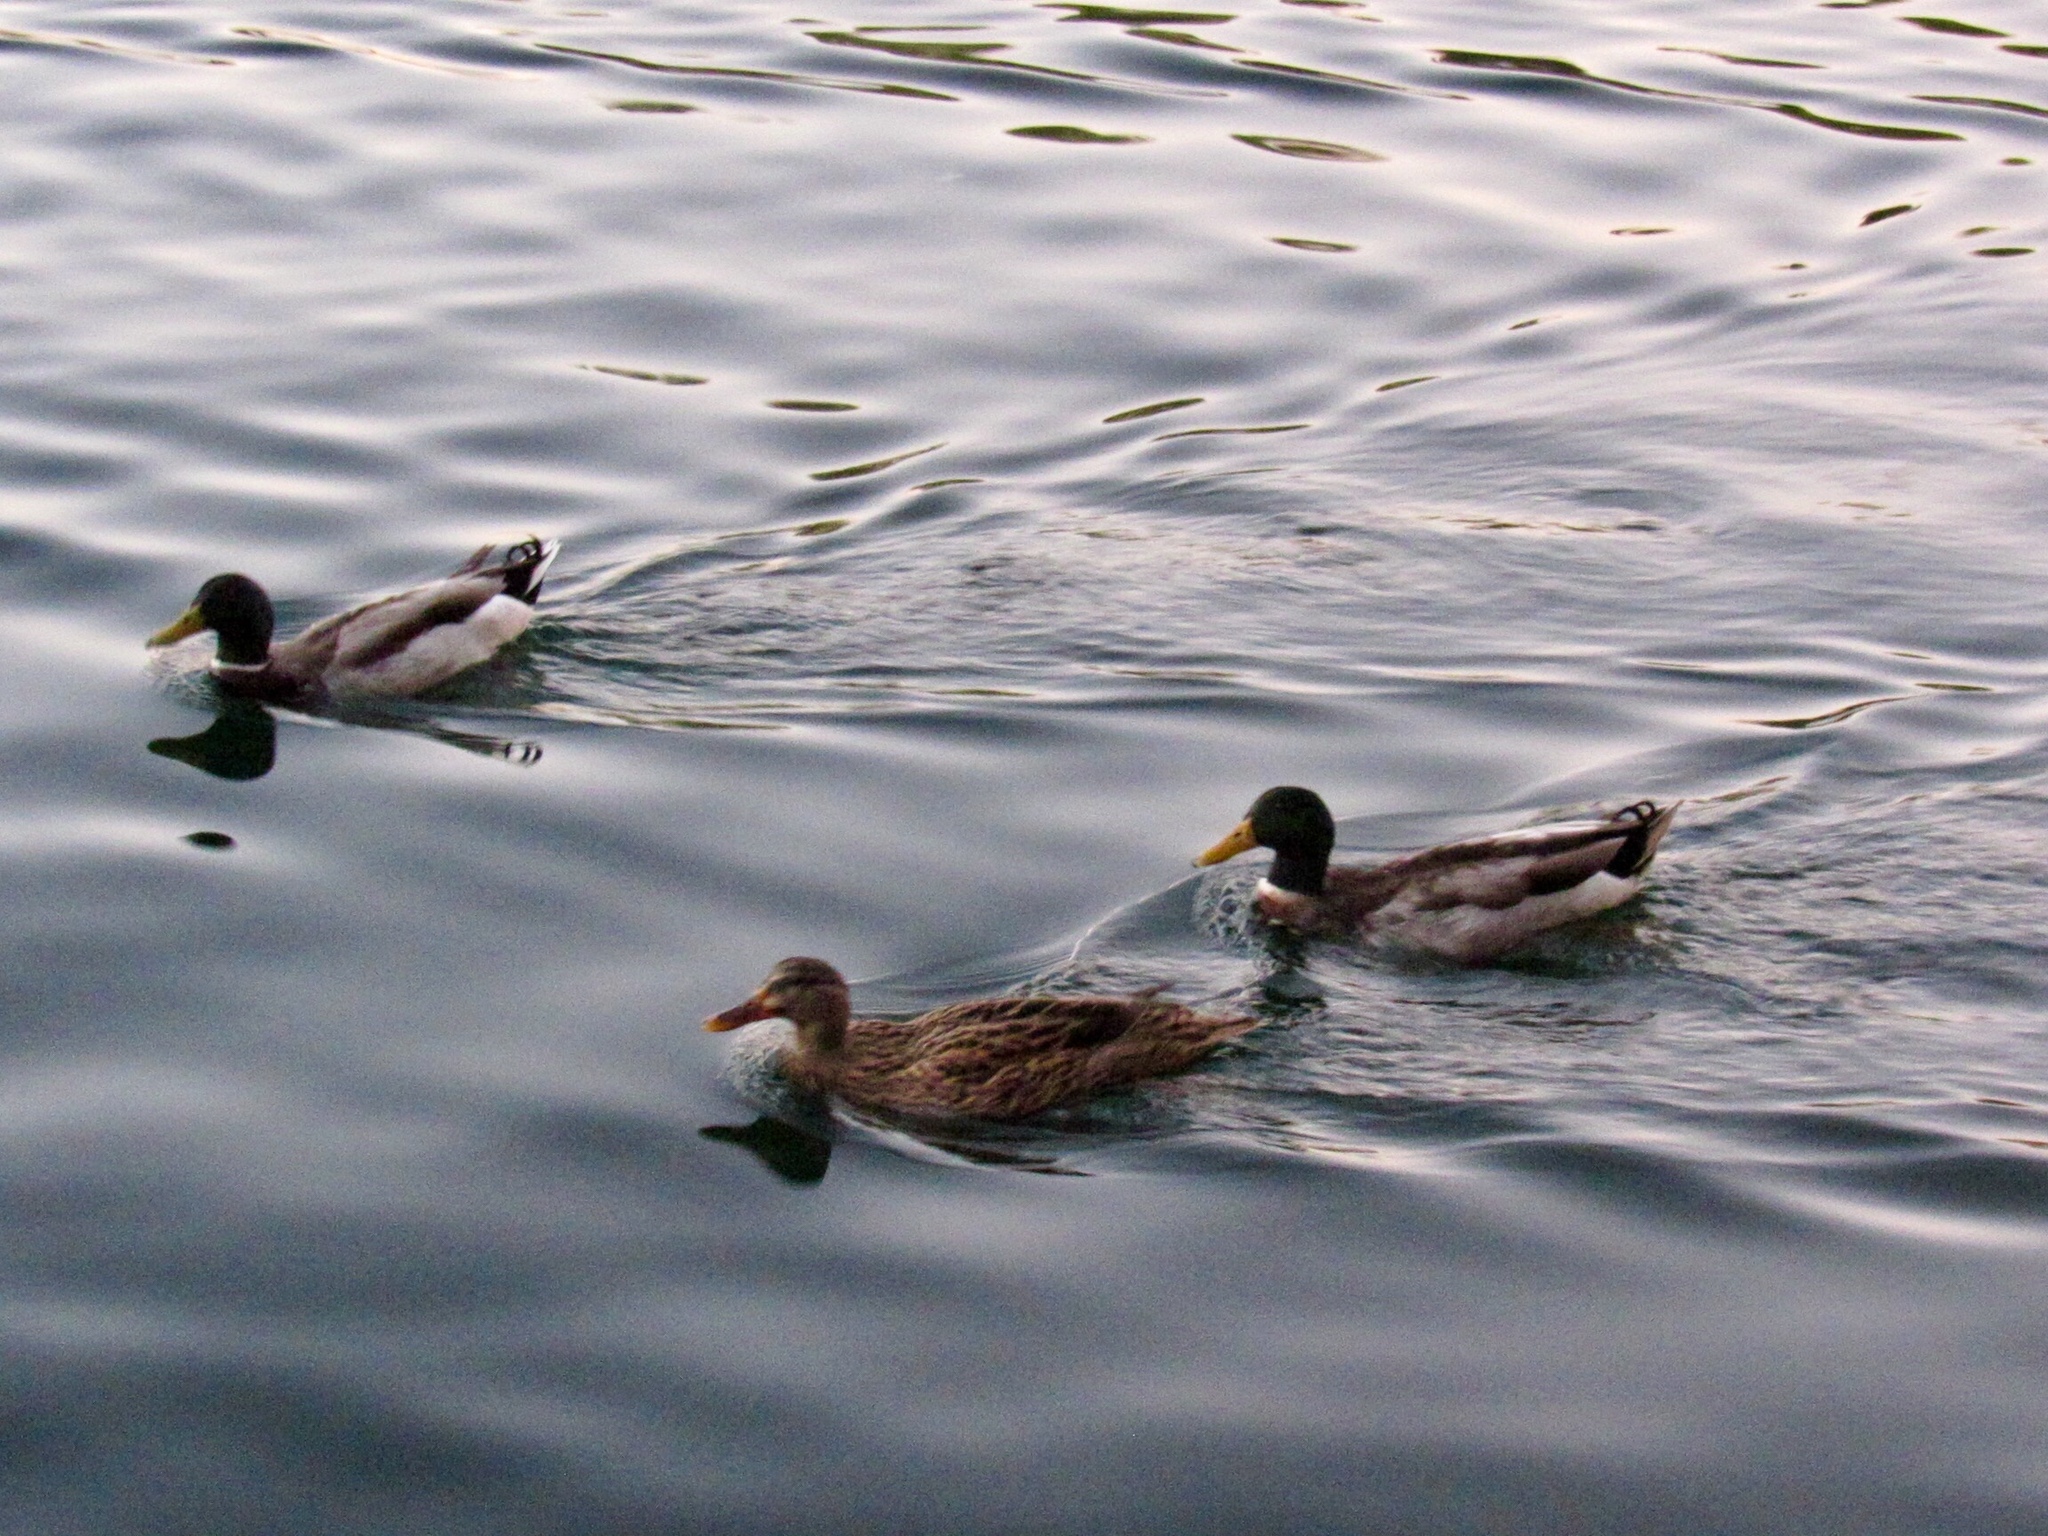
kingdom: Animalia
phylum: Chordata
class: Aves
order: Anseriformes
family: Anatidae
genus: Anas
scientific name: Anas platyrhynchos
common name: Mallard
